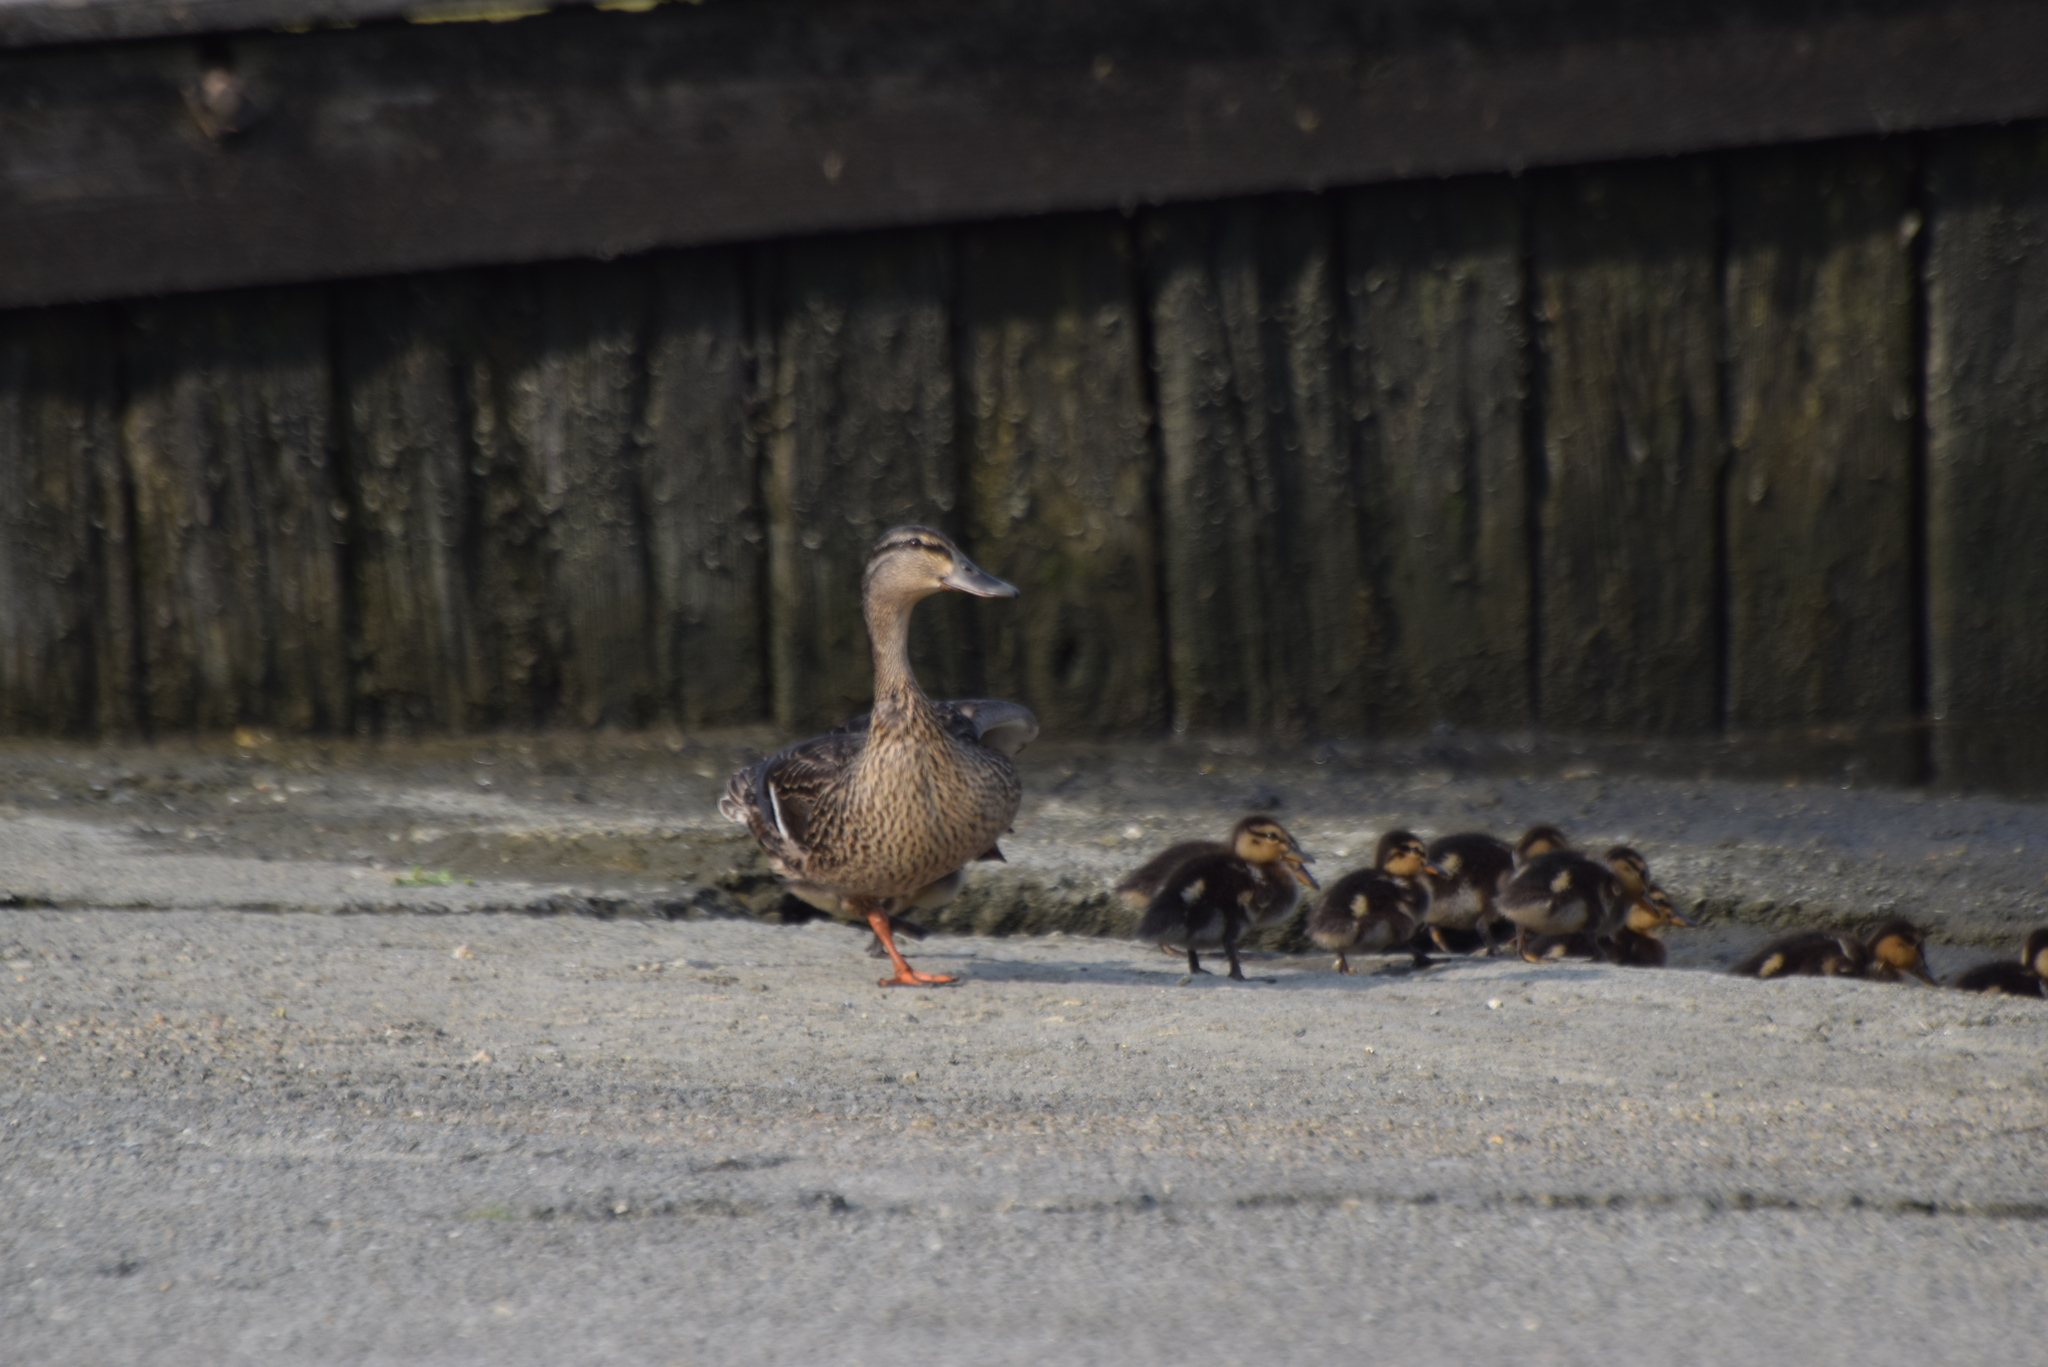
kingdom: Animalia
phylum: Chordata
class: Aves
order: Anseriformes
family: Anatidae
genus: Anas
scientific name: Anas platyrhynchos
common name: Mallard
